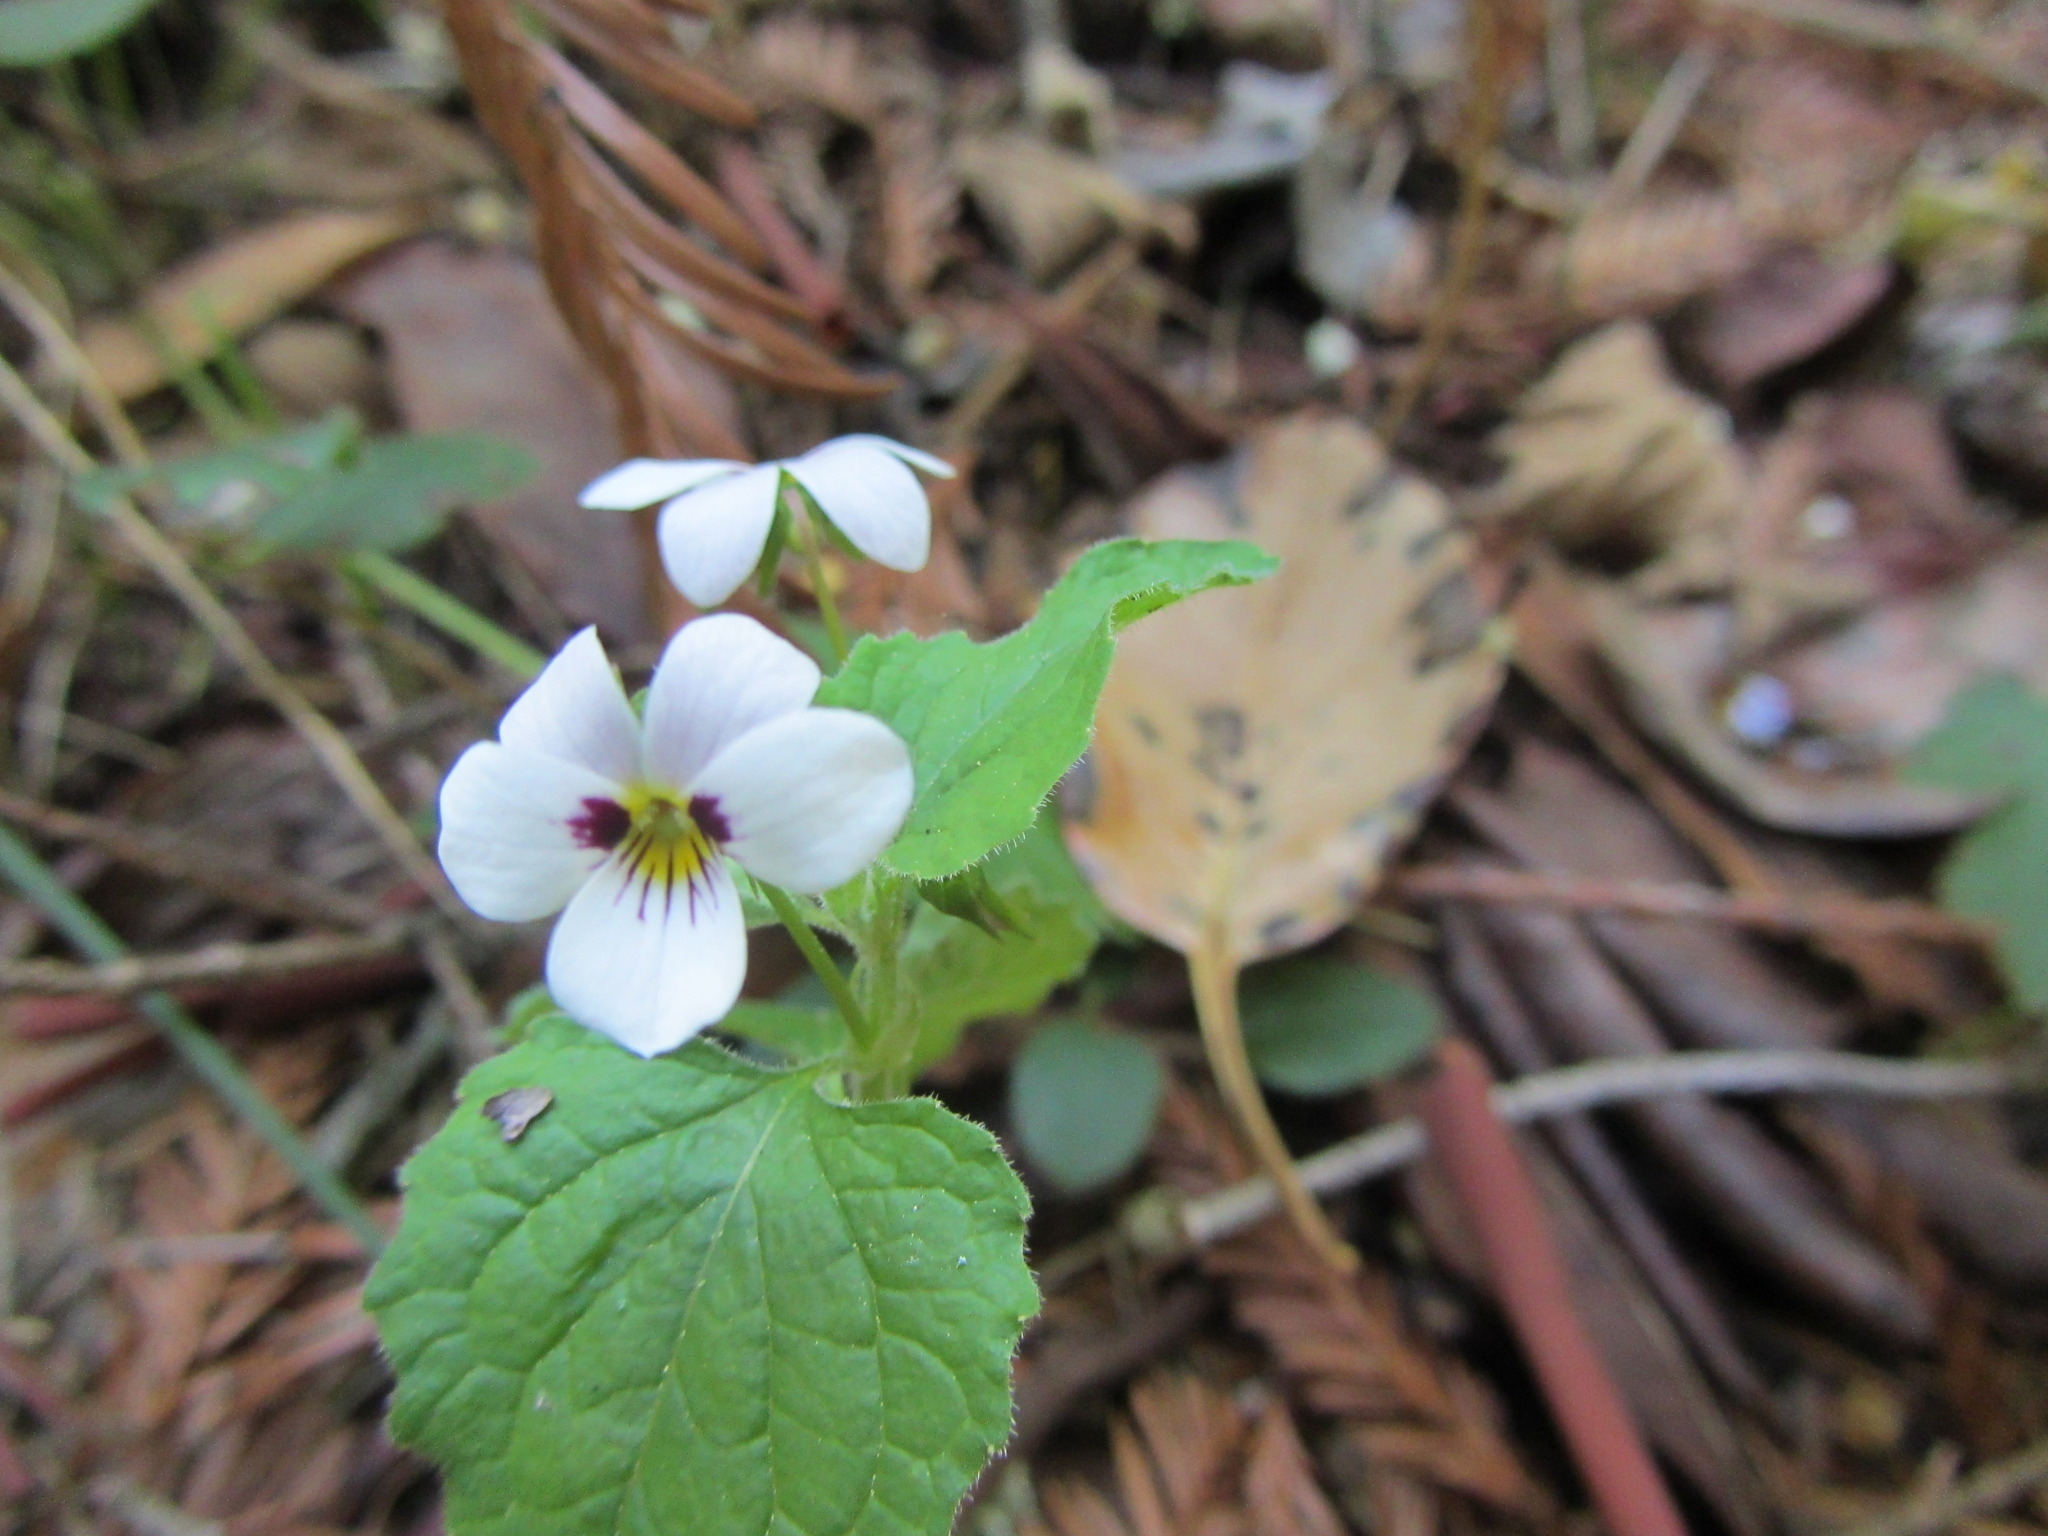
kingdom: Plantae
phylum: Tracheophyta
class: Magnoliopsida
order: Malpighiales
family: Violaceae
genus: Viola
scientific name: Viola ocellata
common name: Western heart's ease
